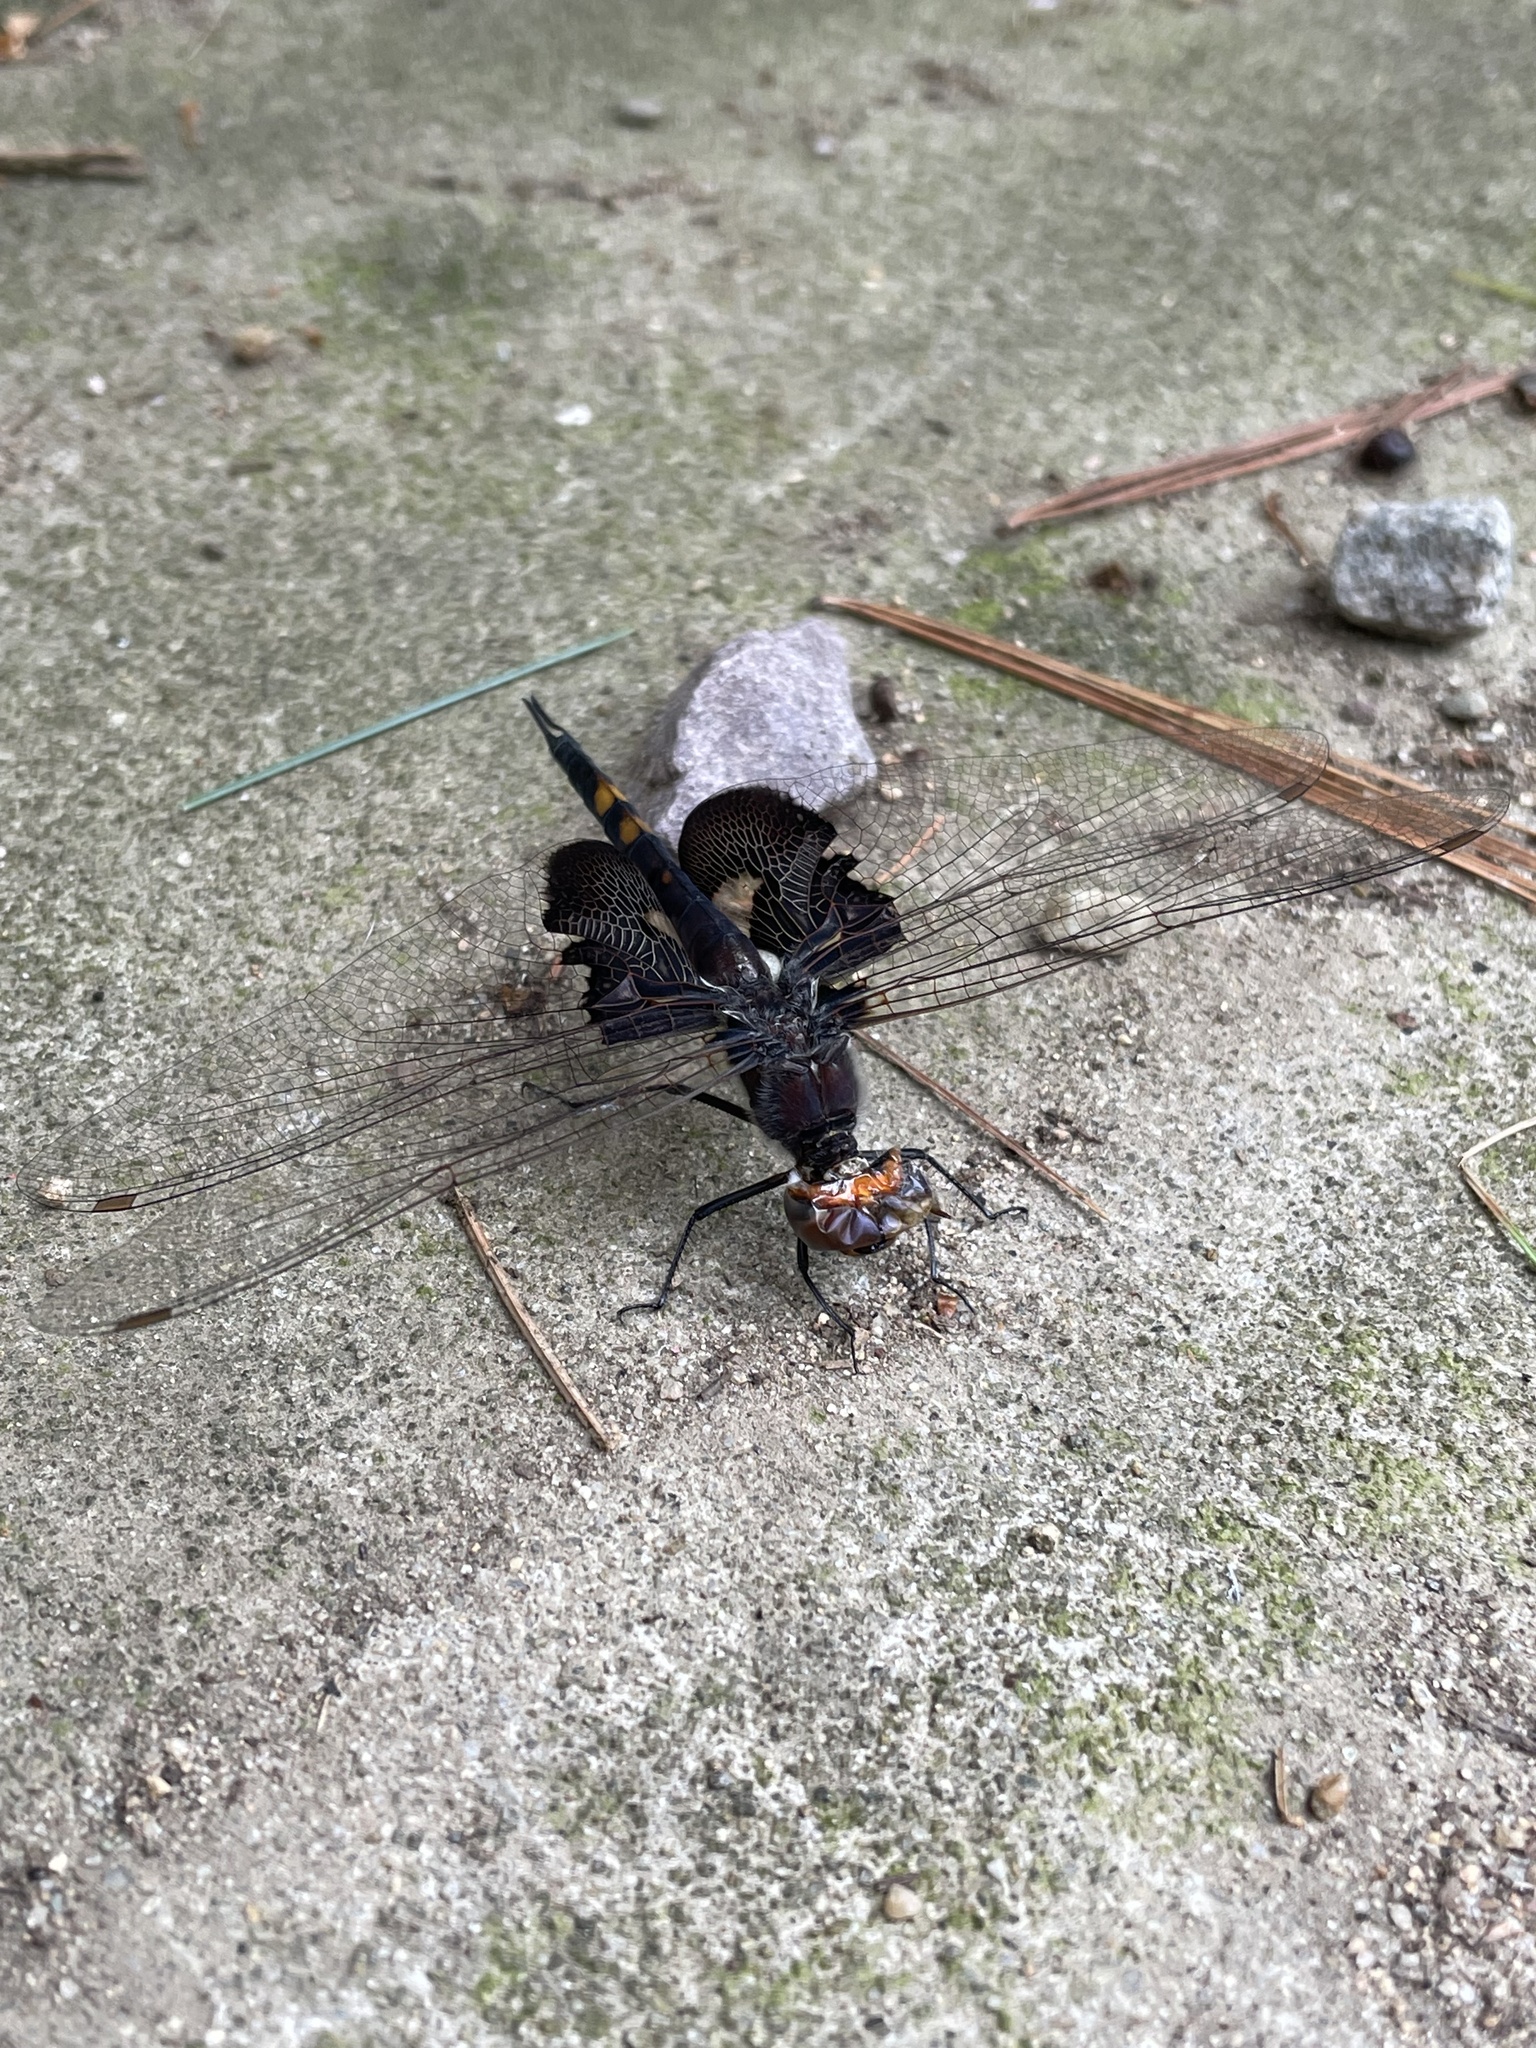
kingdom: Animalia
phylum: Arthropoda
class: Insecta
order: Odonata
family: Libellulidae
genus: Tramea
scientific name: Tramea lacerata
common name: Black saddlebags
